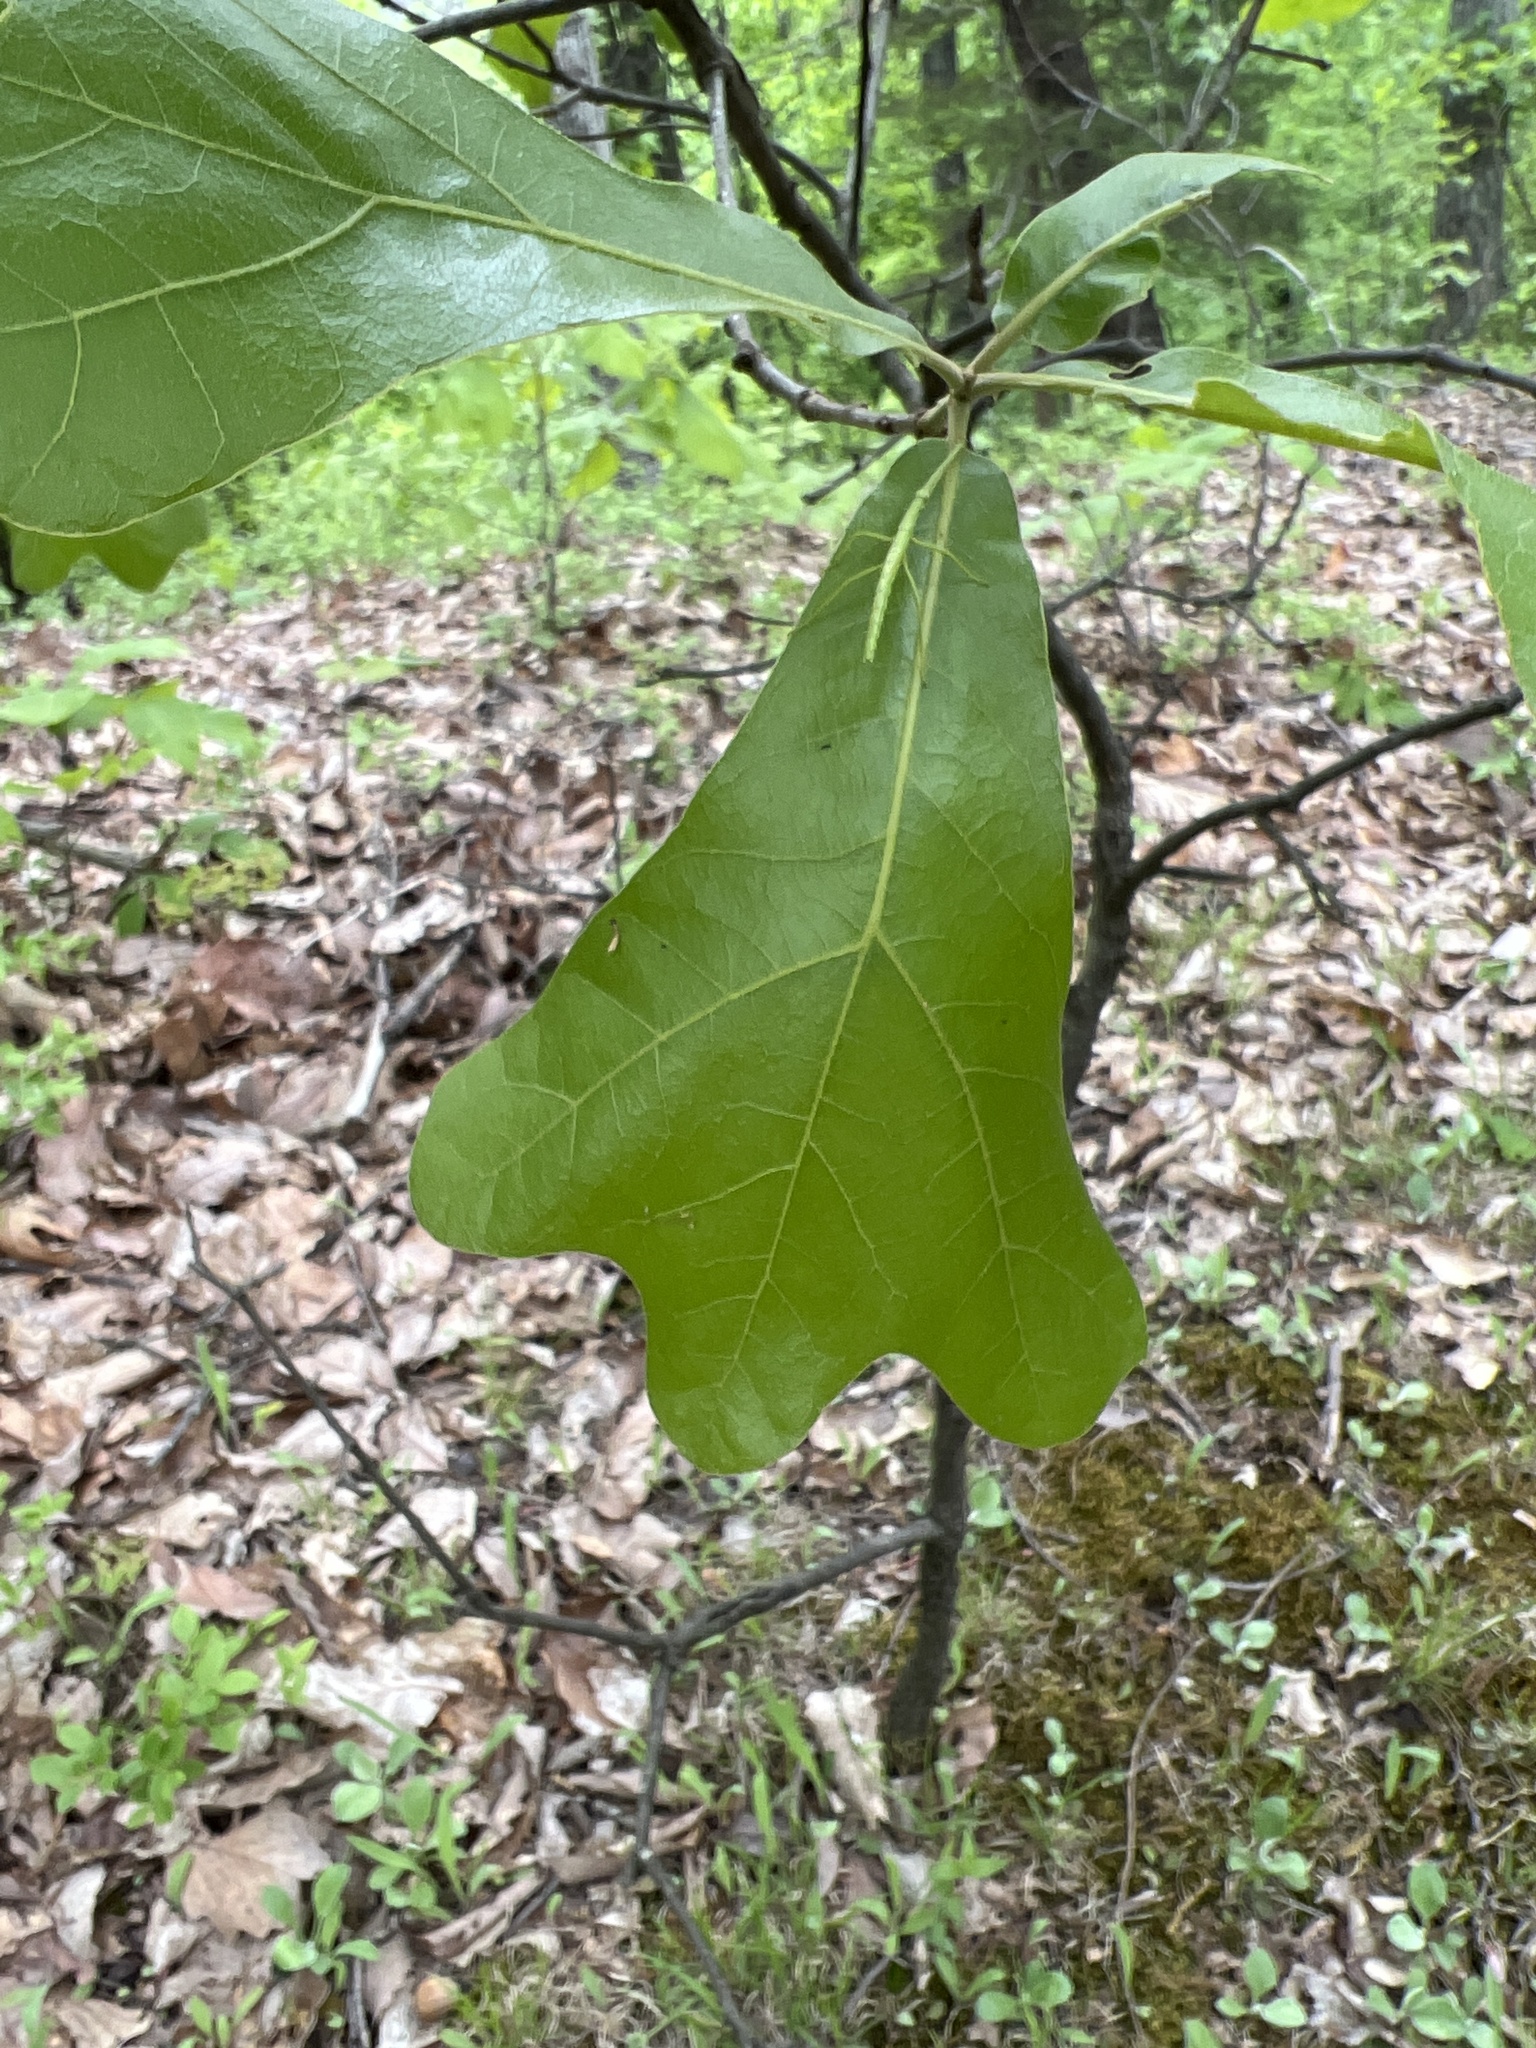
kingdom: Plantae
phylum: Tracheophyta
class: Magnoliopsida
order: Fagales
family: Fagaceae
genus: Quercus
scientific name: Quercus marilandica
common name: Blackjack oak
